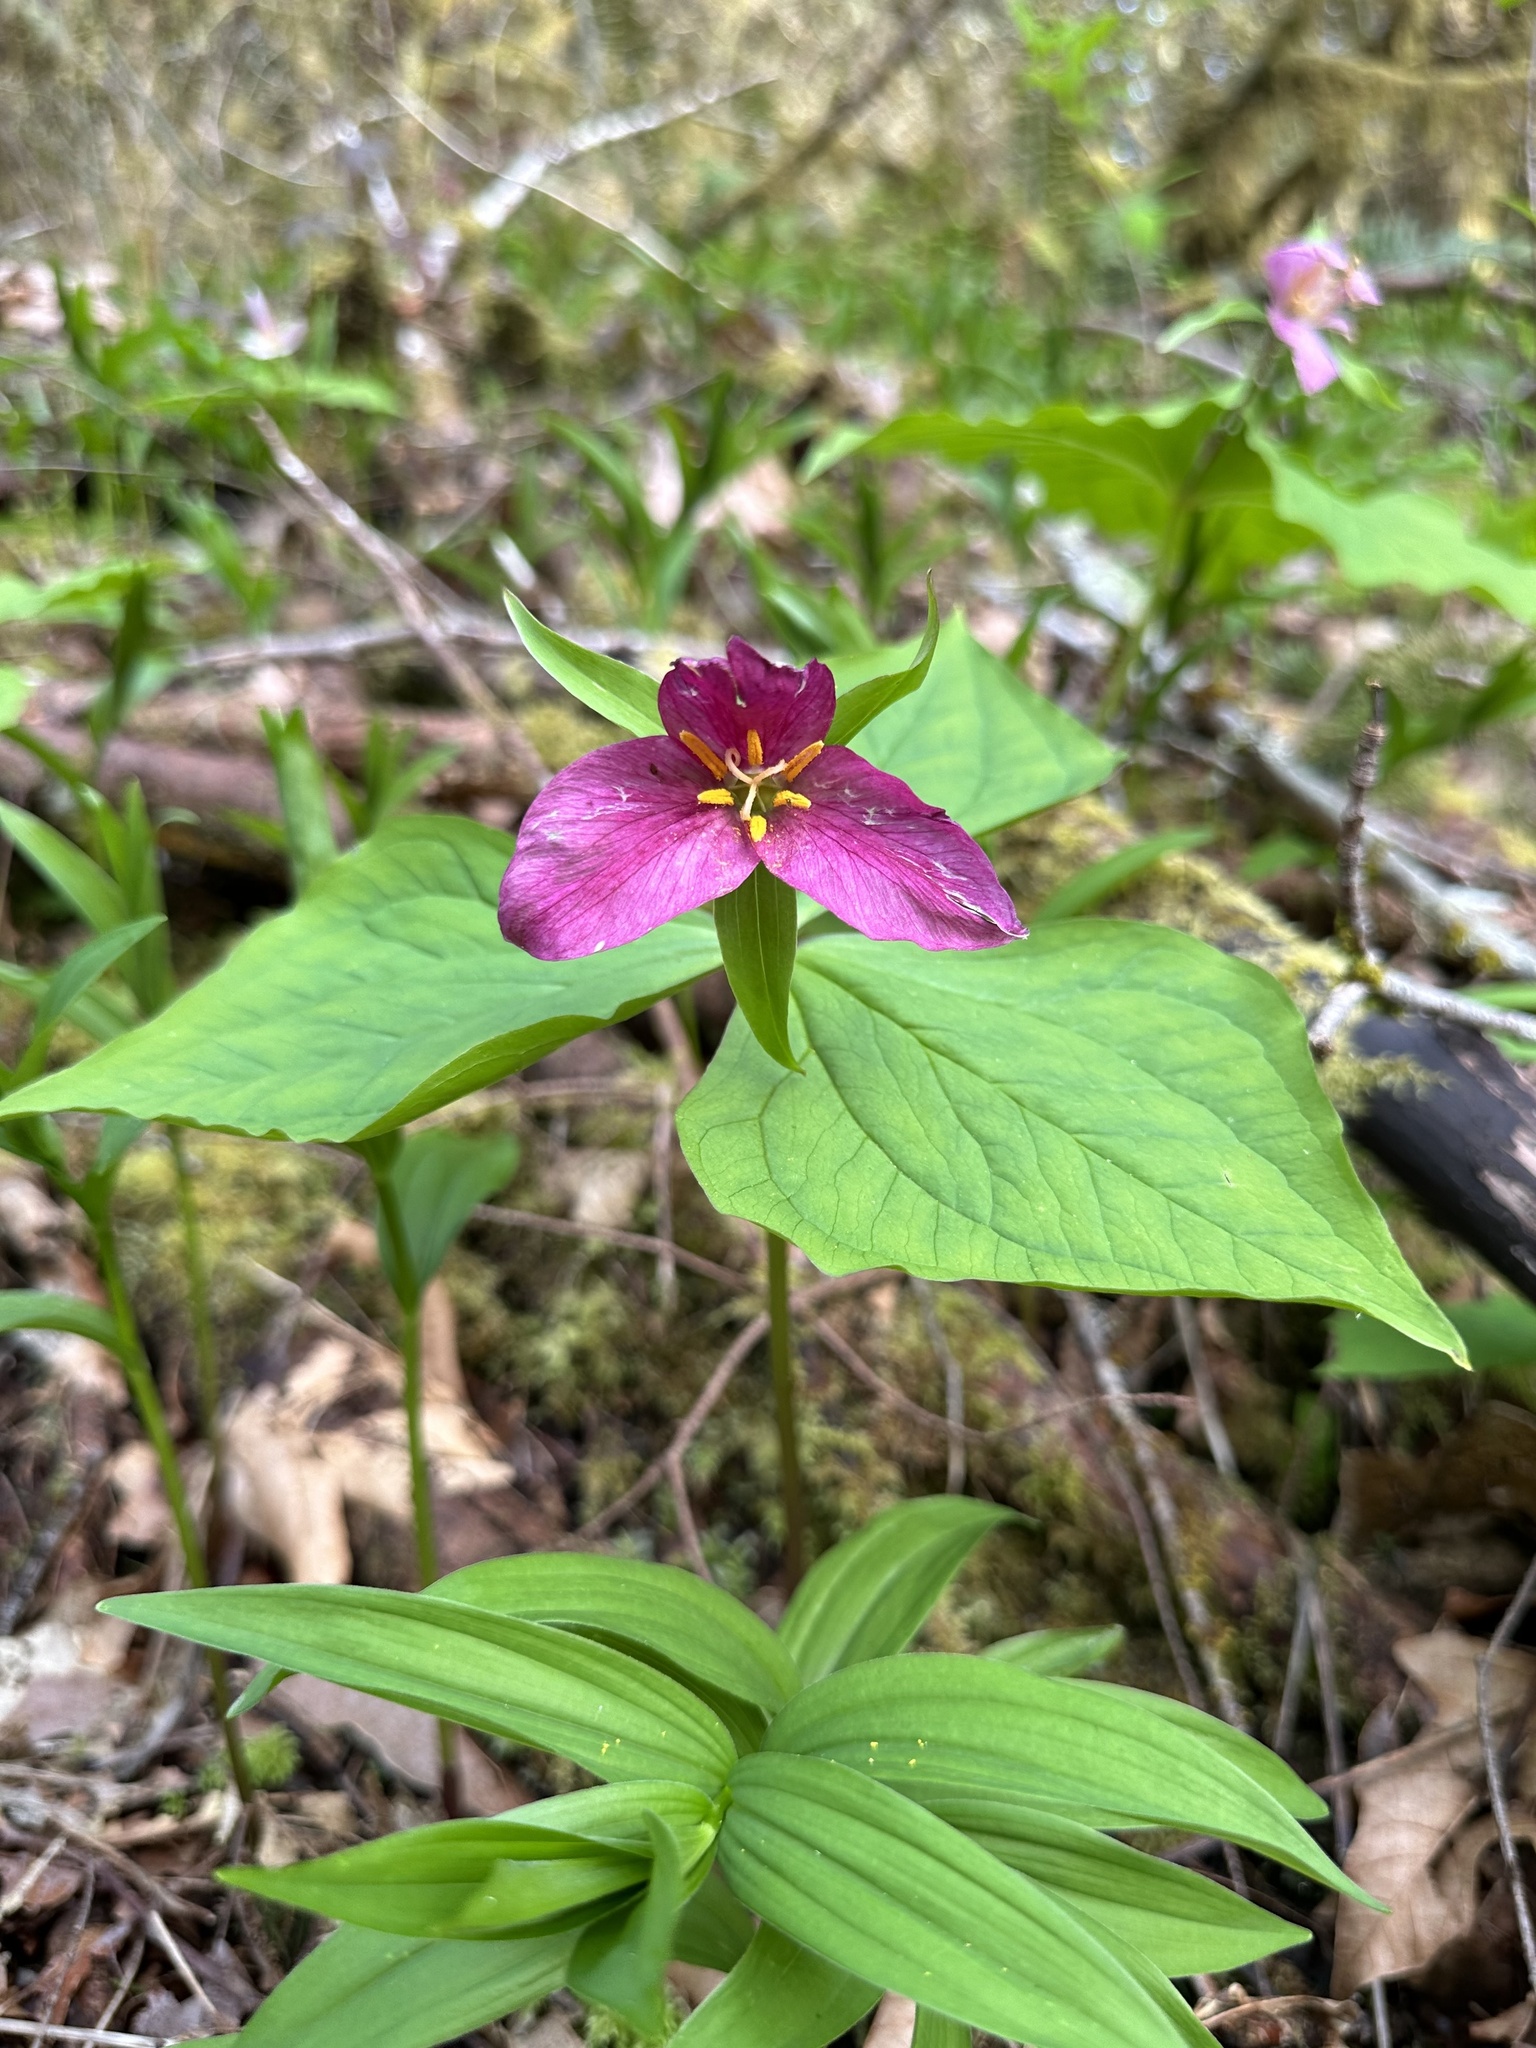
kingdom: Plantae
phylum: Tracheophyta
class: Liliopsida
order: Liliales
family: Melanthiaceae
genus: Trillium
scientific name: Trillium ovatum
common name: Pacific trillium
